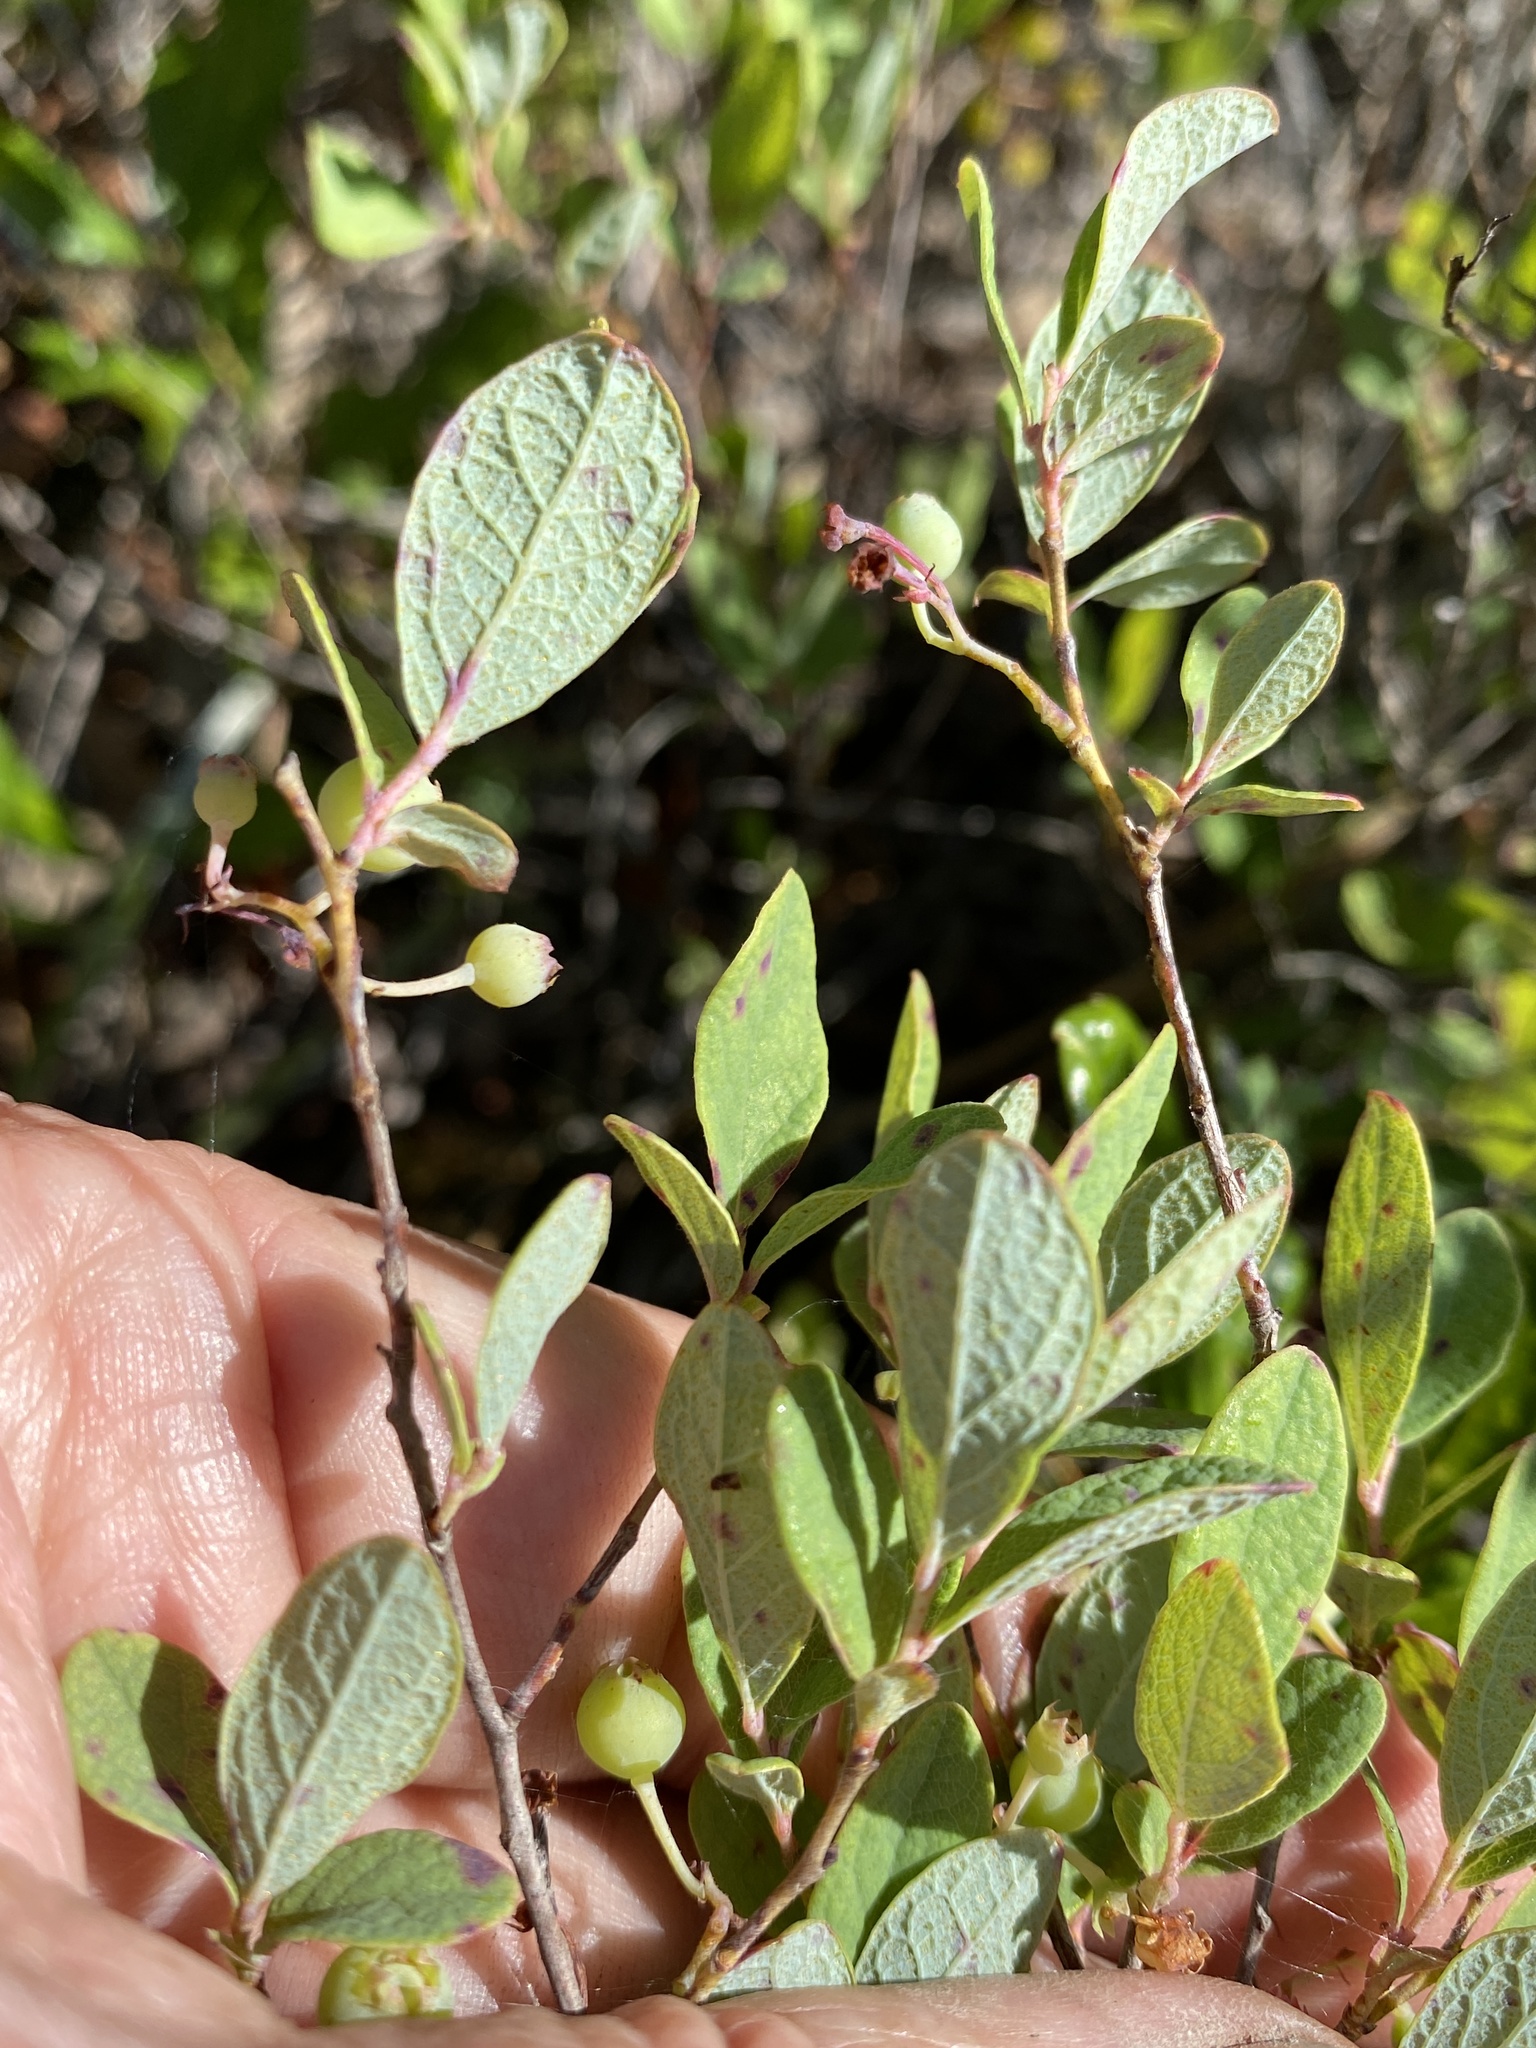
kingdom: Plantae
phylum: Tracheophyta
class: Magnoliopsida
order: Ericales
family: Ericaceae
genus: Gaylussacia
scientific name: Gaylussacia nana
